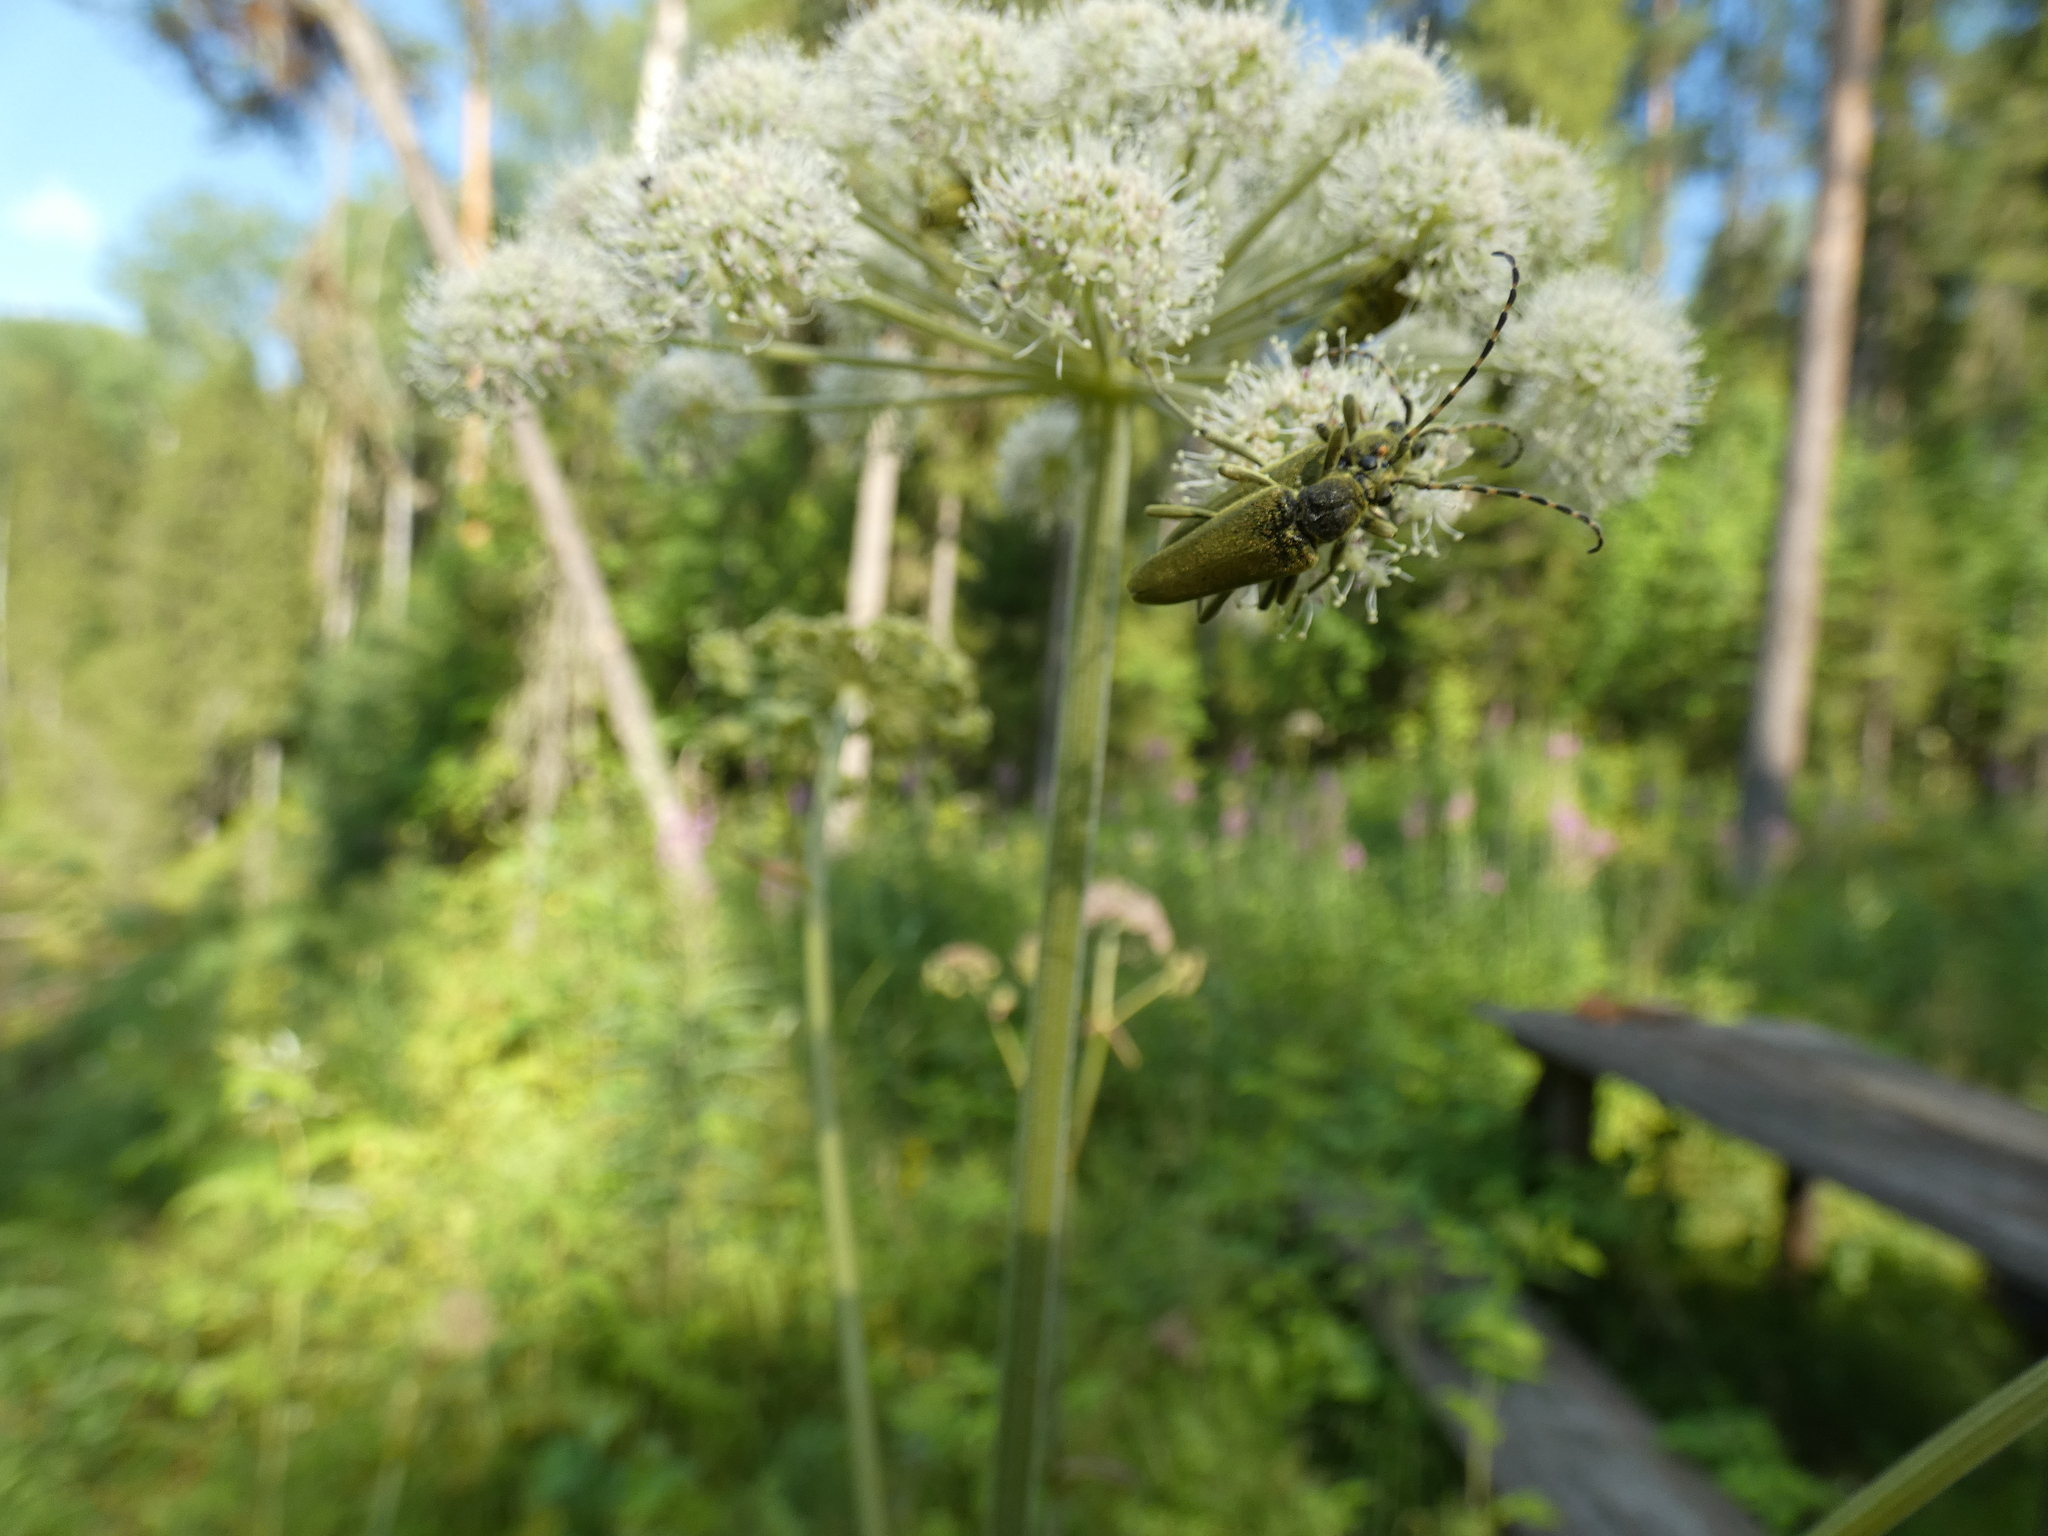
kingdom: Animalia
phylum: Arthropoda
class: Insecta
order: Coleoptera
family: Cerambycidae
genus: Lepturobosca
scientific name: Lepturobosca virens
